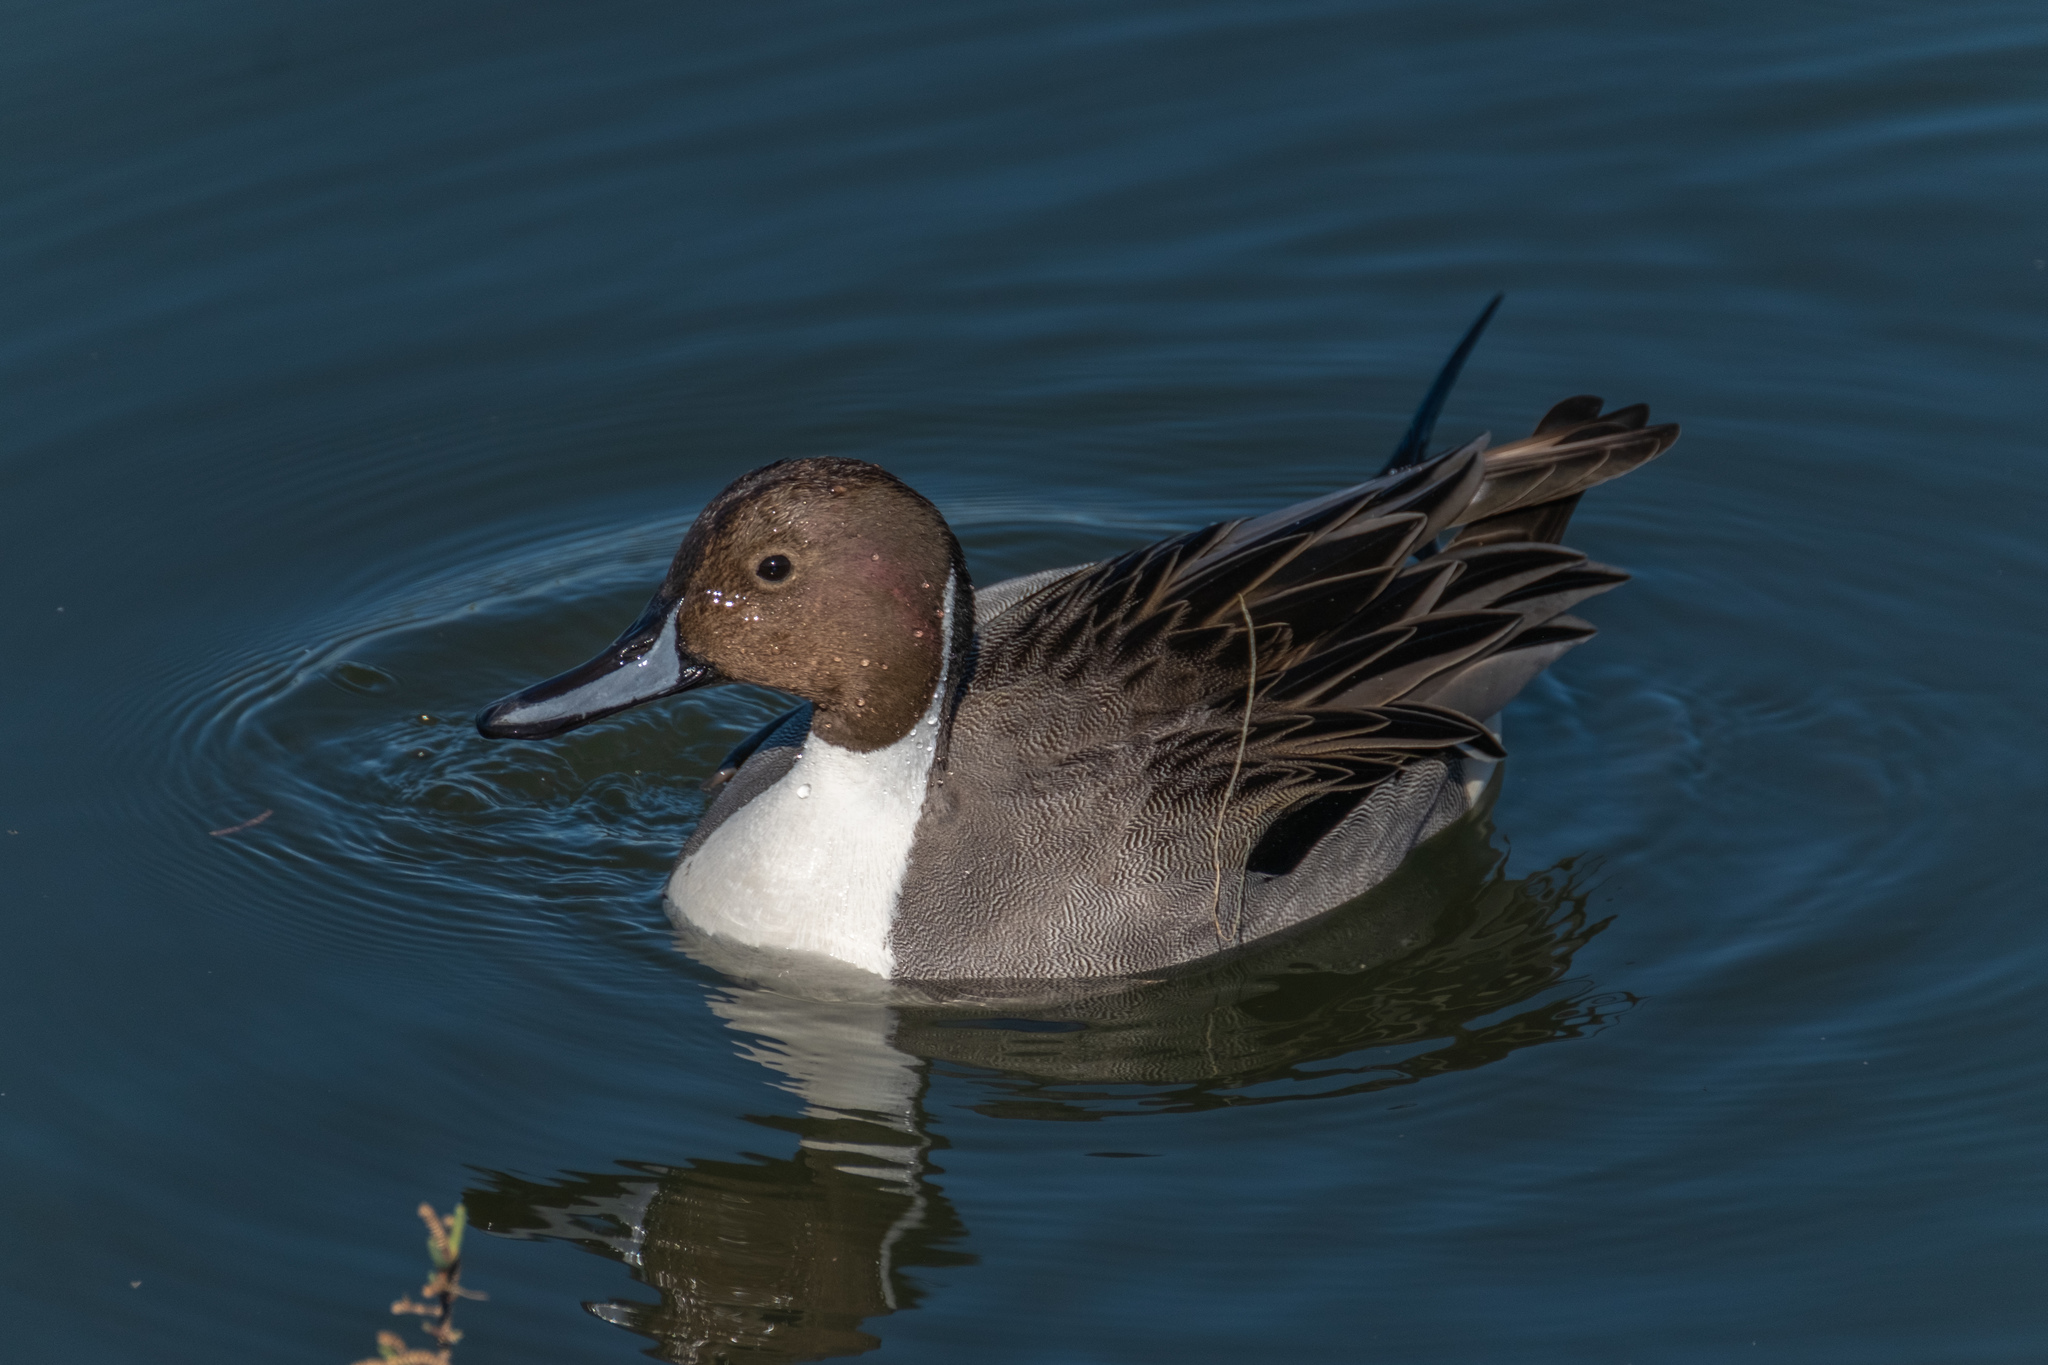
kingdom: Animalia
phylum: Chordata
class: Aves
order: Anseriformes
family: Anatidae
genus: Anas
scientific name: Anas acuta
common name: Northern pintail
